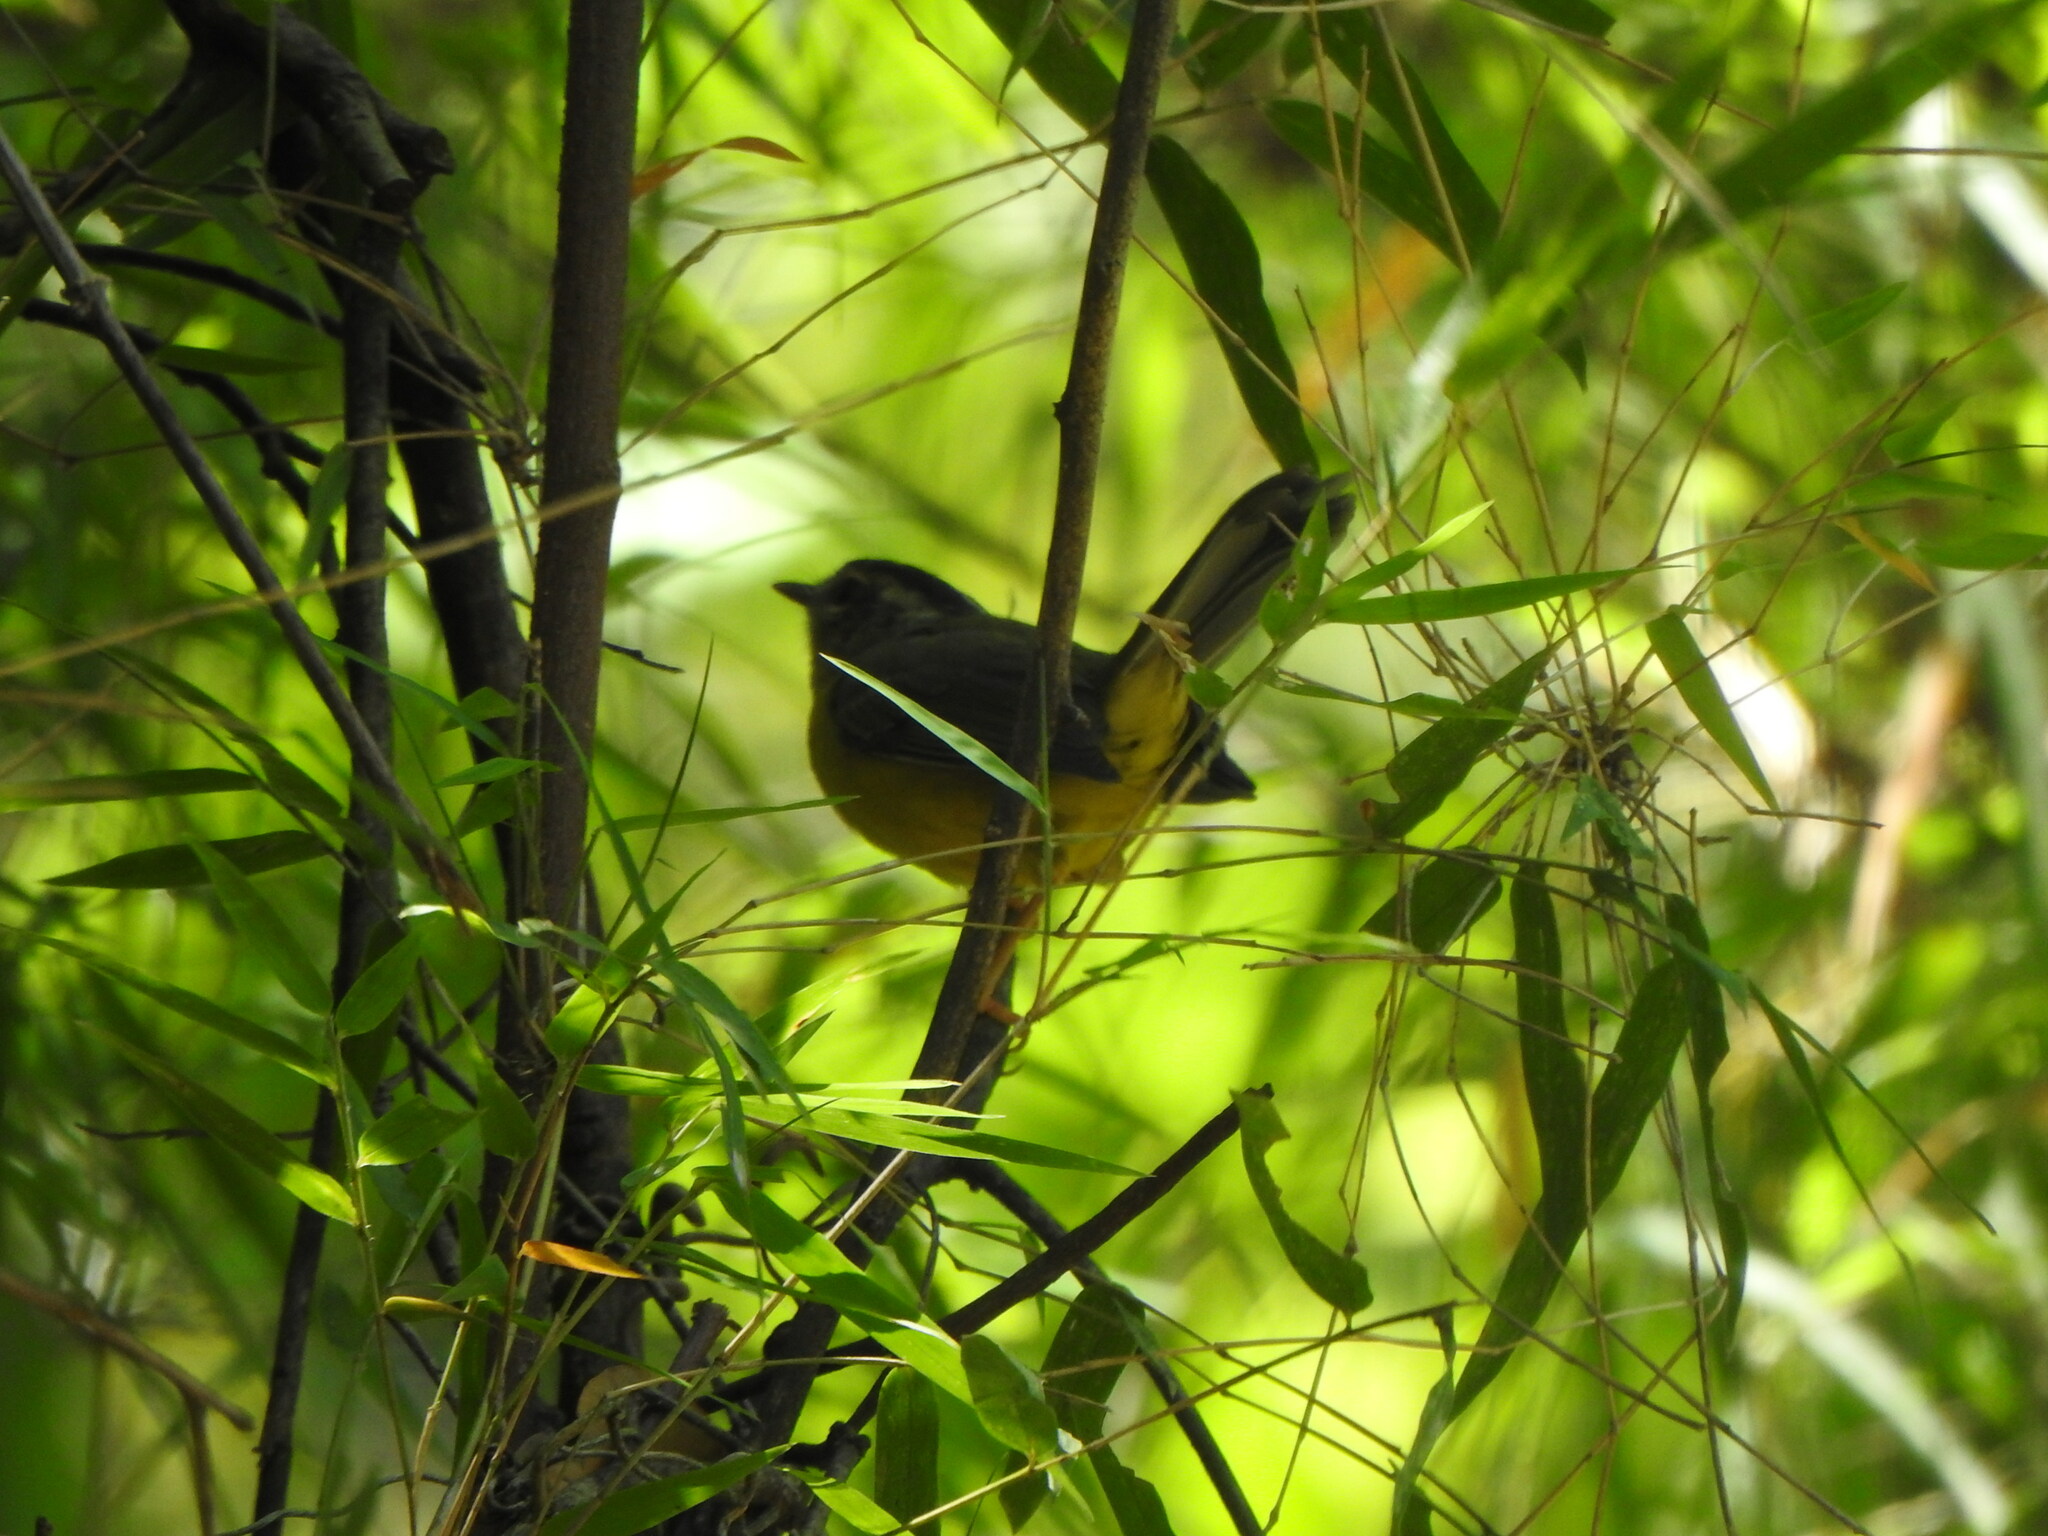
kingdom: Animalia
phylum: Chordata
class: Aves
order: Passeriformes
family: Parulidae
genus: Basileuterus
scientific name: Basileuterus culicivorus
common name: Golden-crowned warbler
